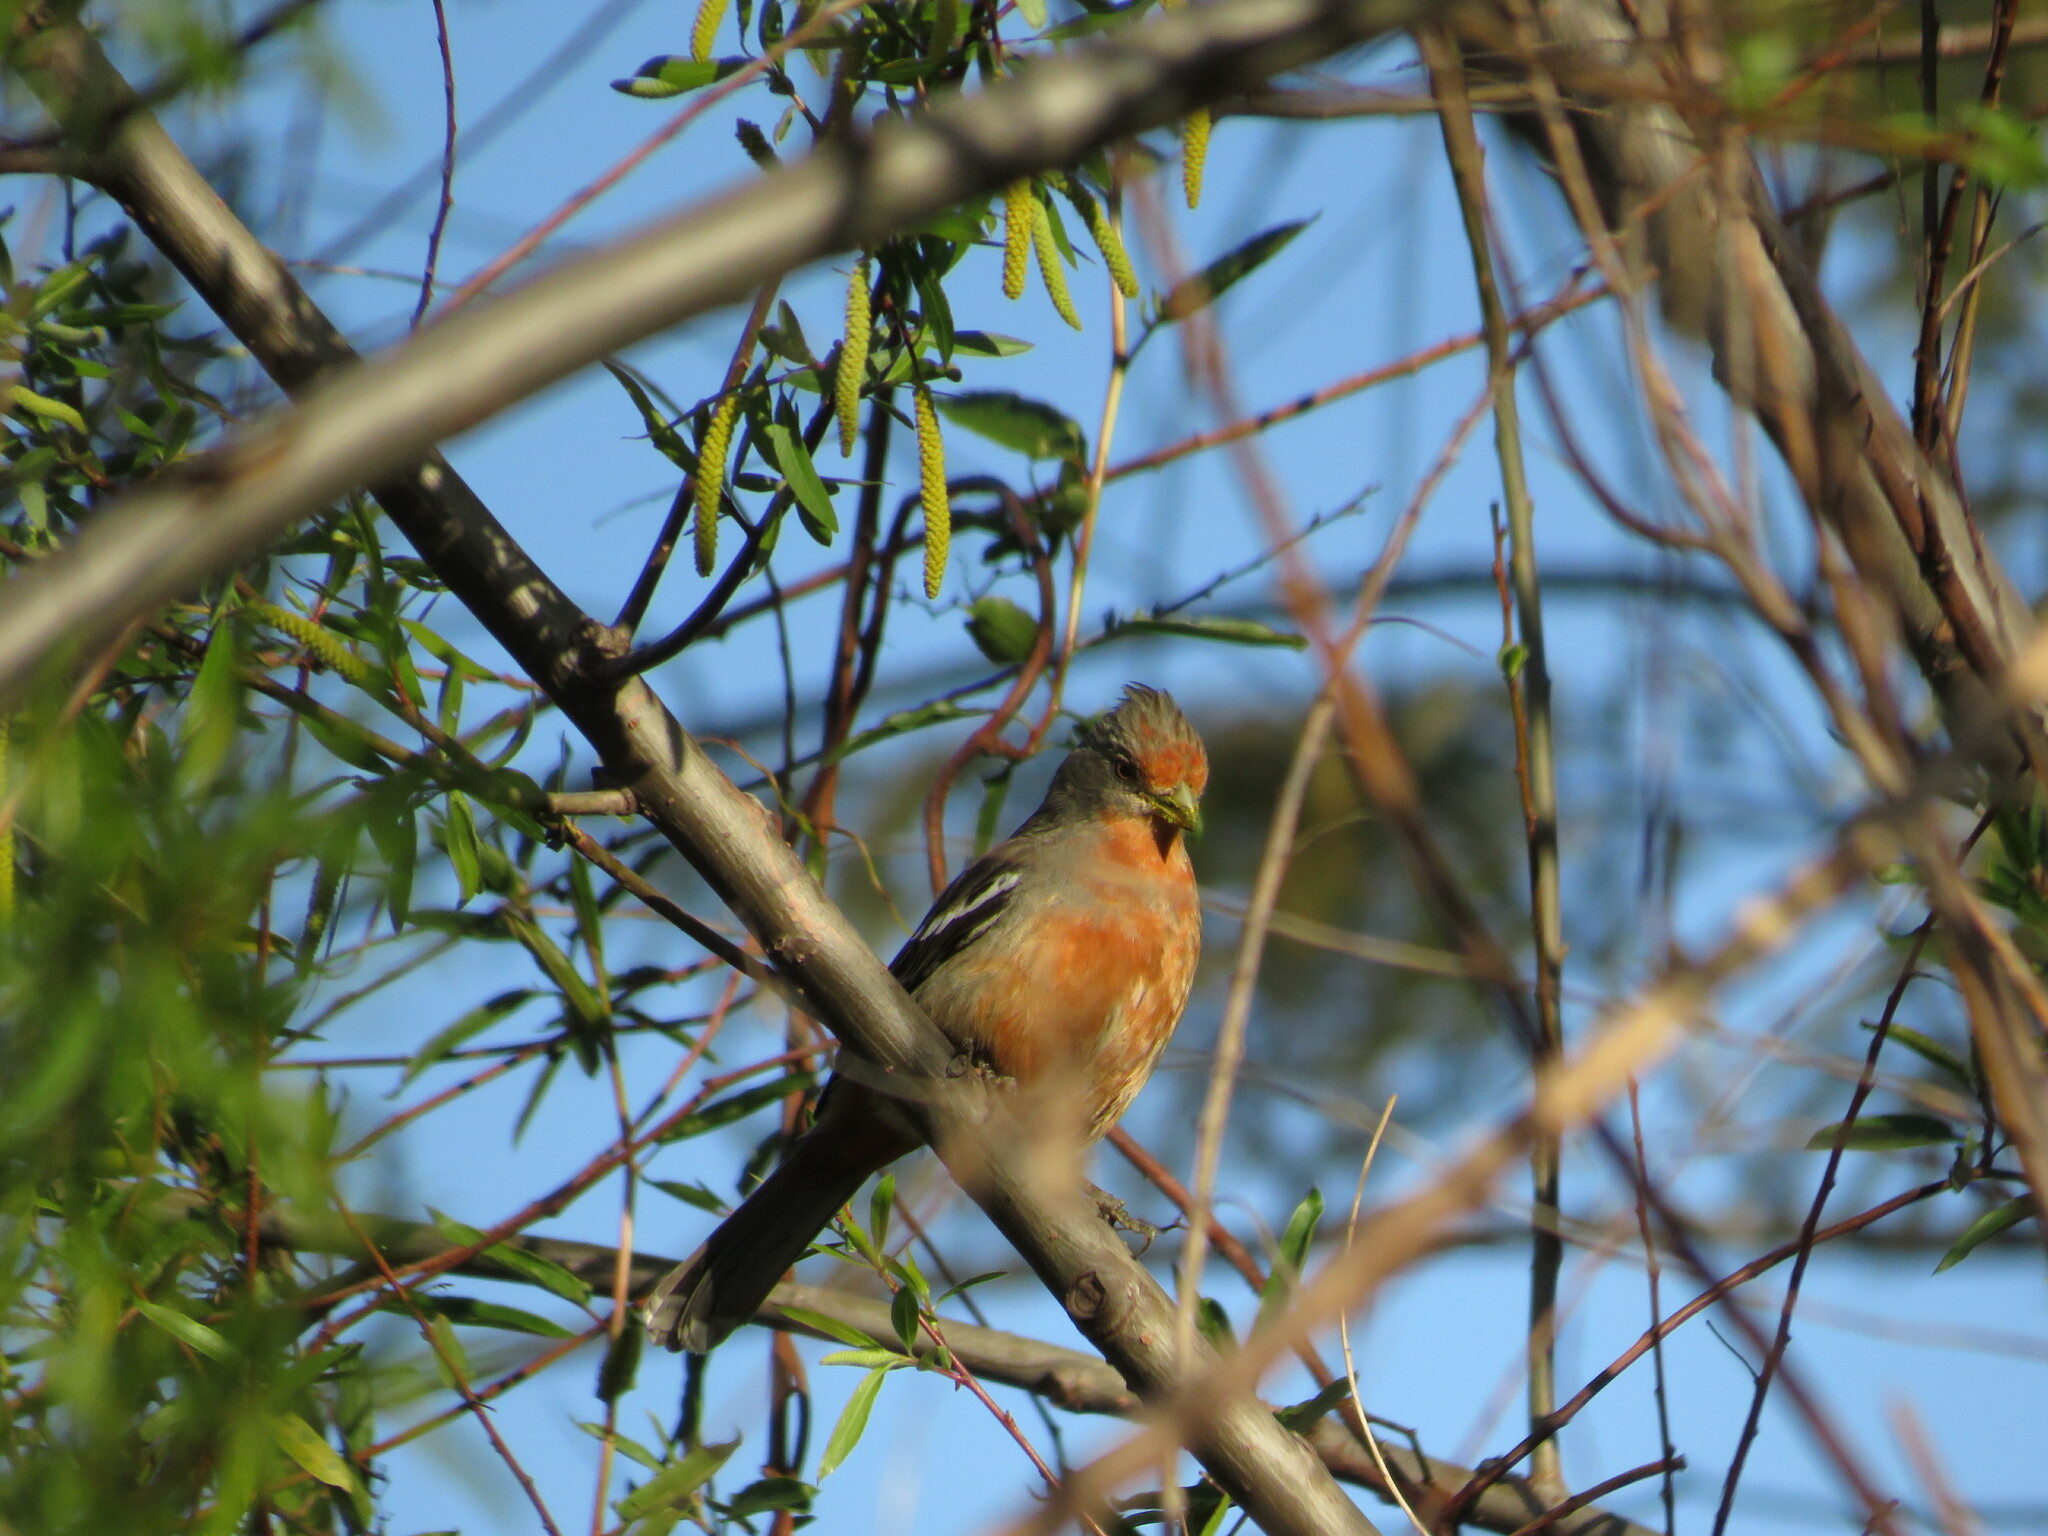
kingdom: Animalia
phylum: Chordata
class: Aves
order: Passeriformes
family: Cotingidae
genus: Phytotoma
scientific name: Phytotoma rutila
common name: White-tipped plantcutter
